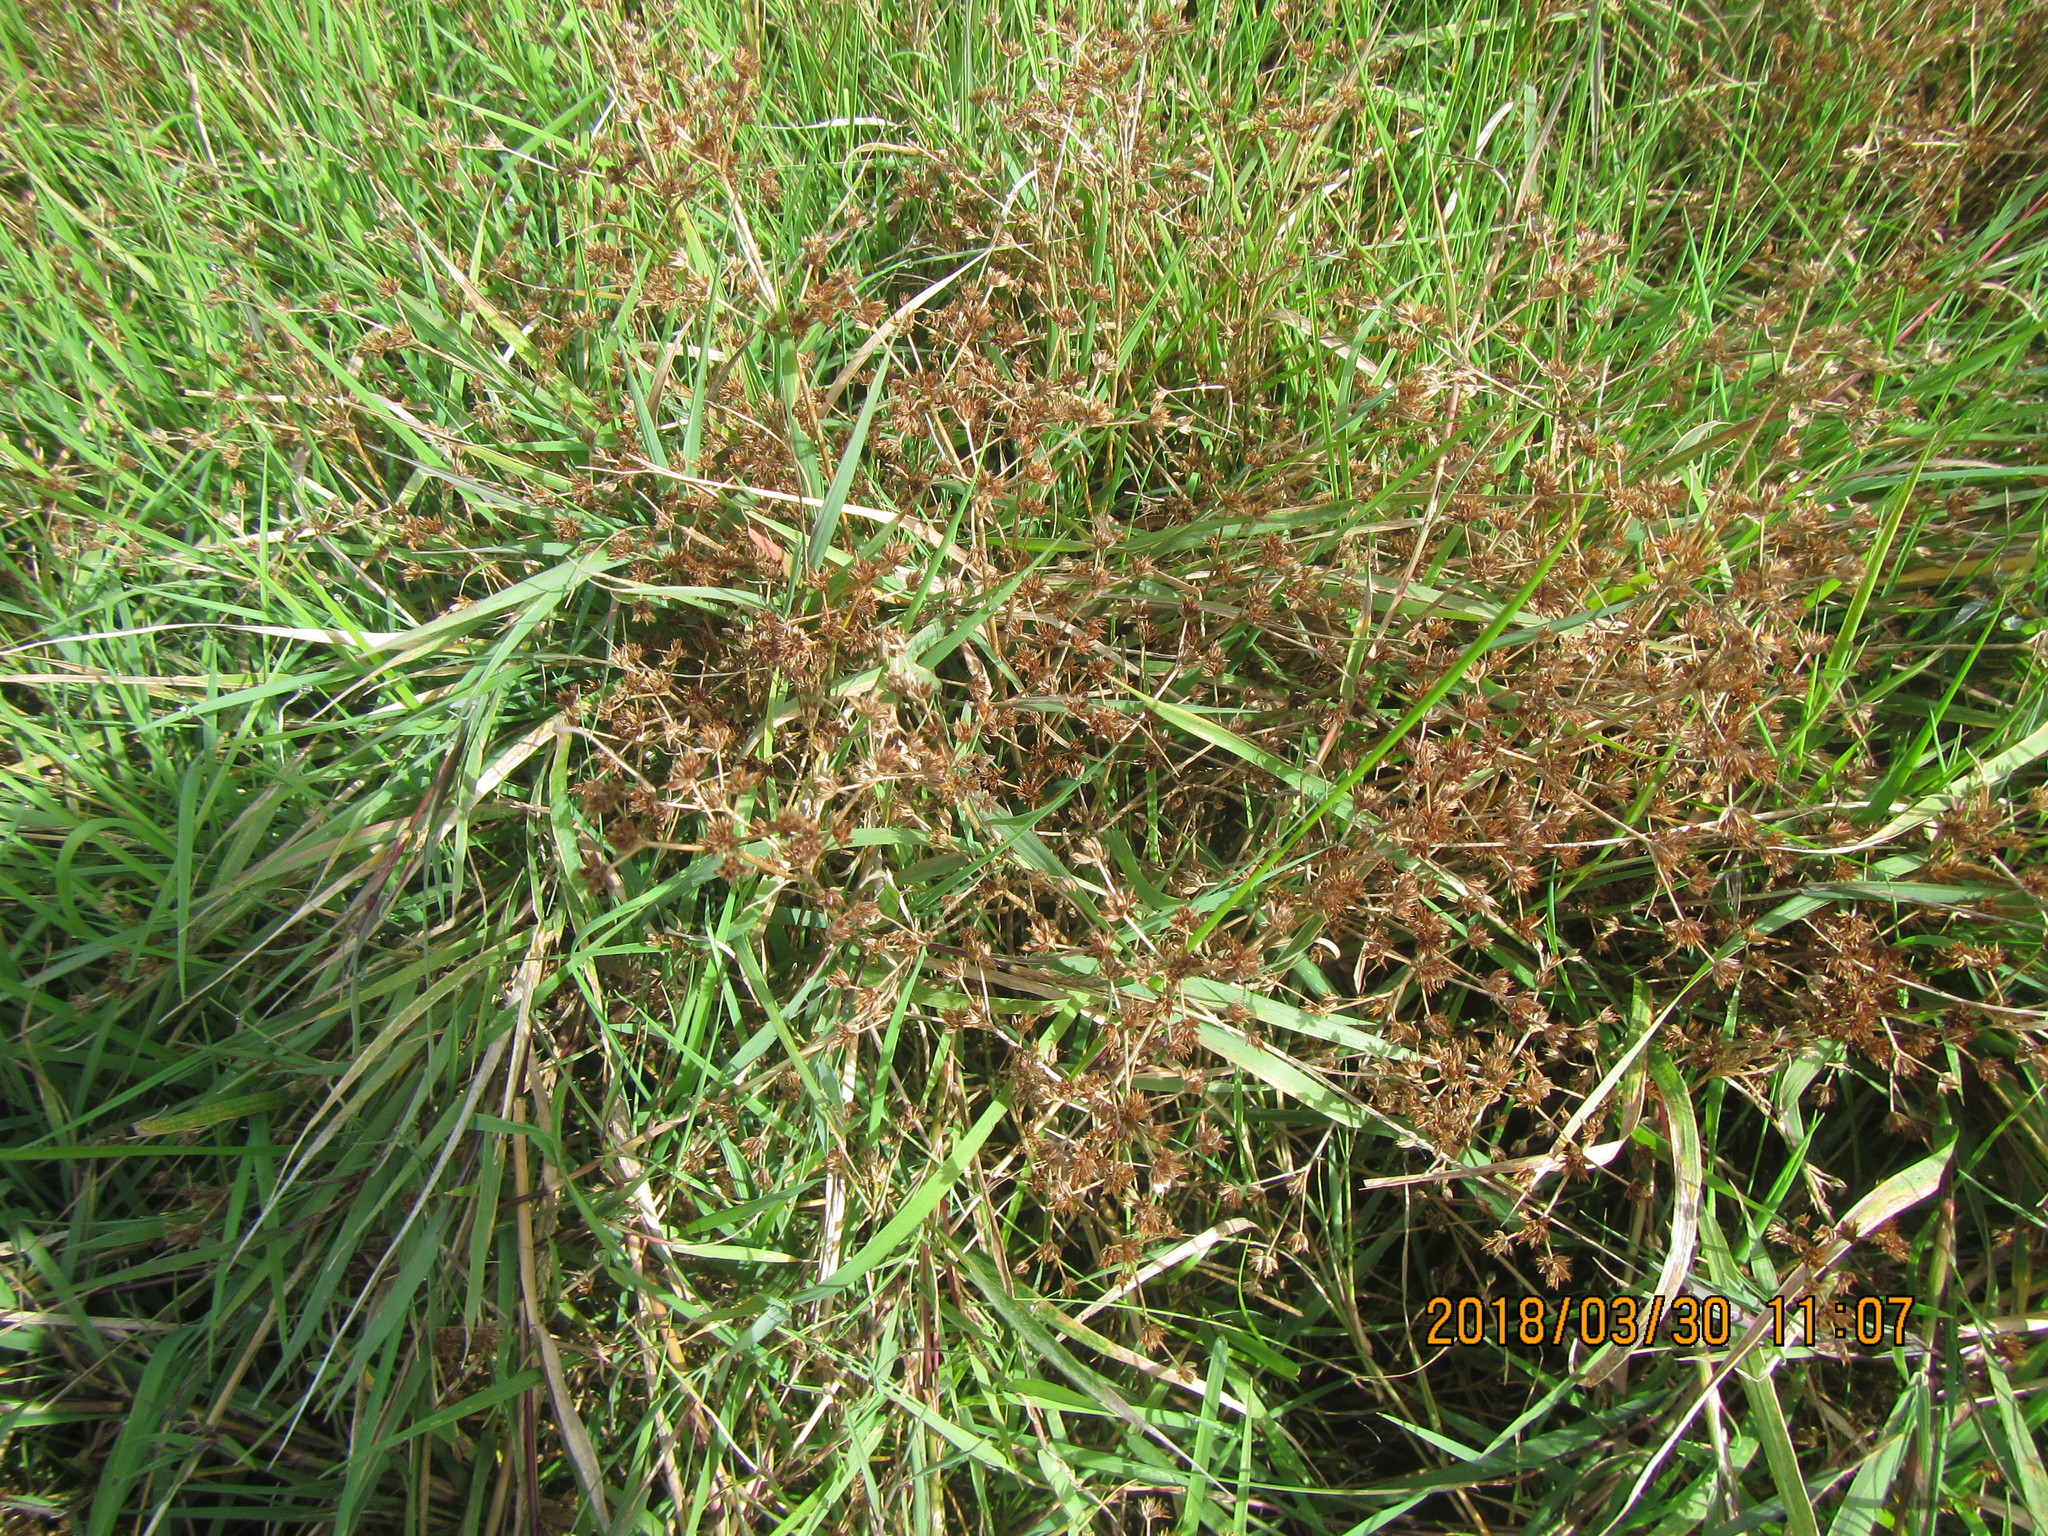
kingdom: Plantae
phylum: Tracheophyta
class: Liliopsida
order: Poales
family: Juncaceae
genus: Juncus
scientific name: Juncus articulatus
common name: Jointed rush
